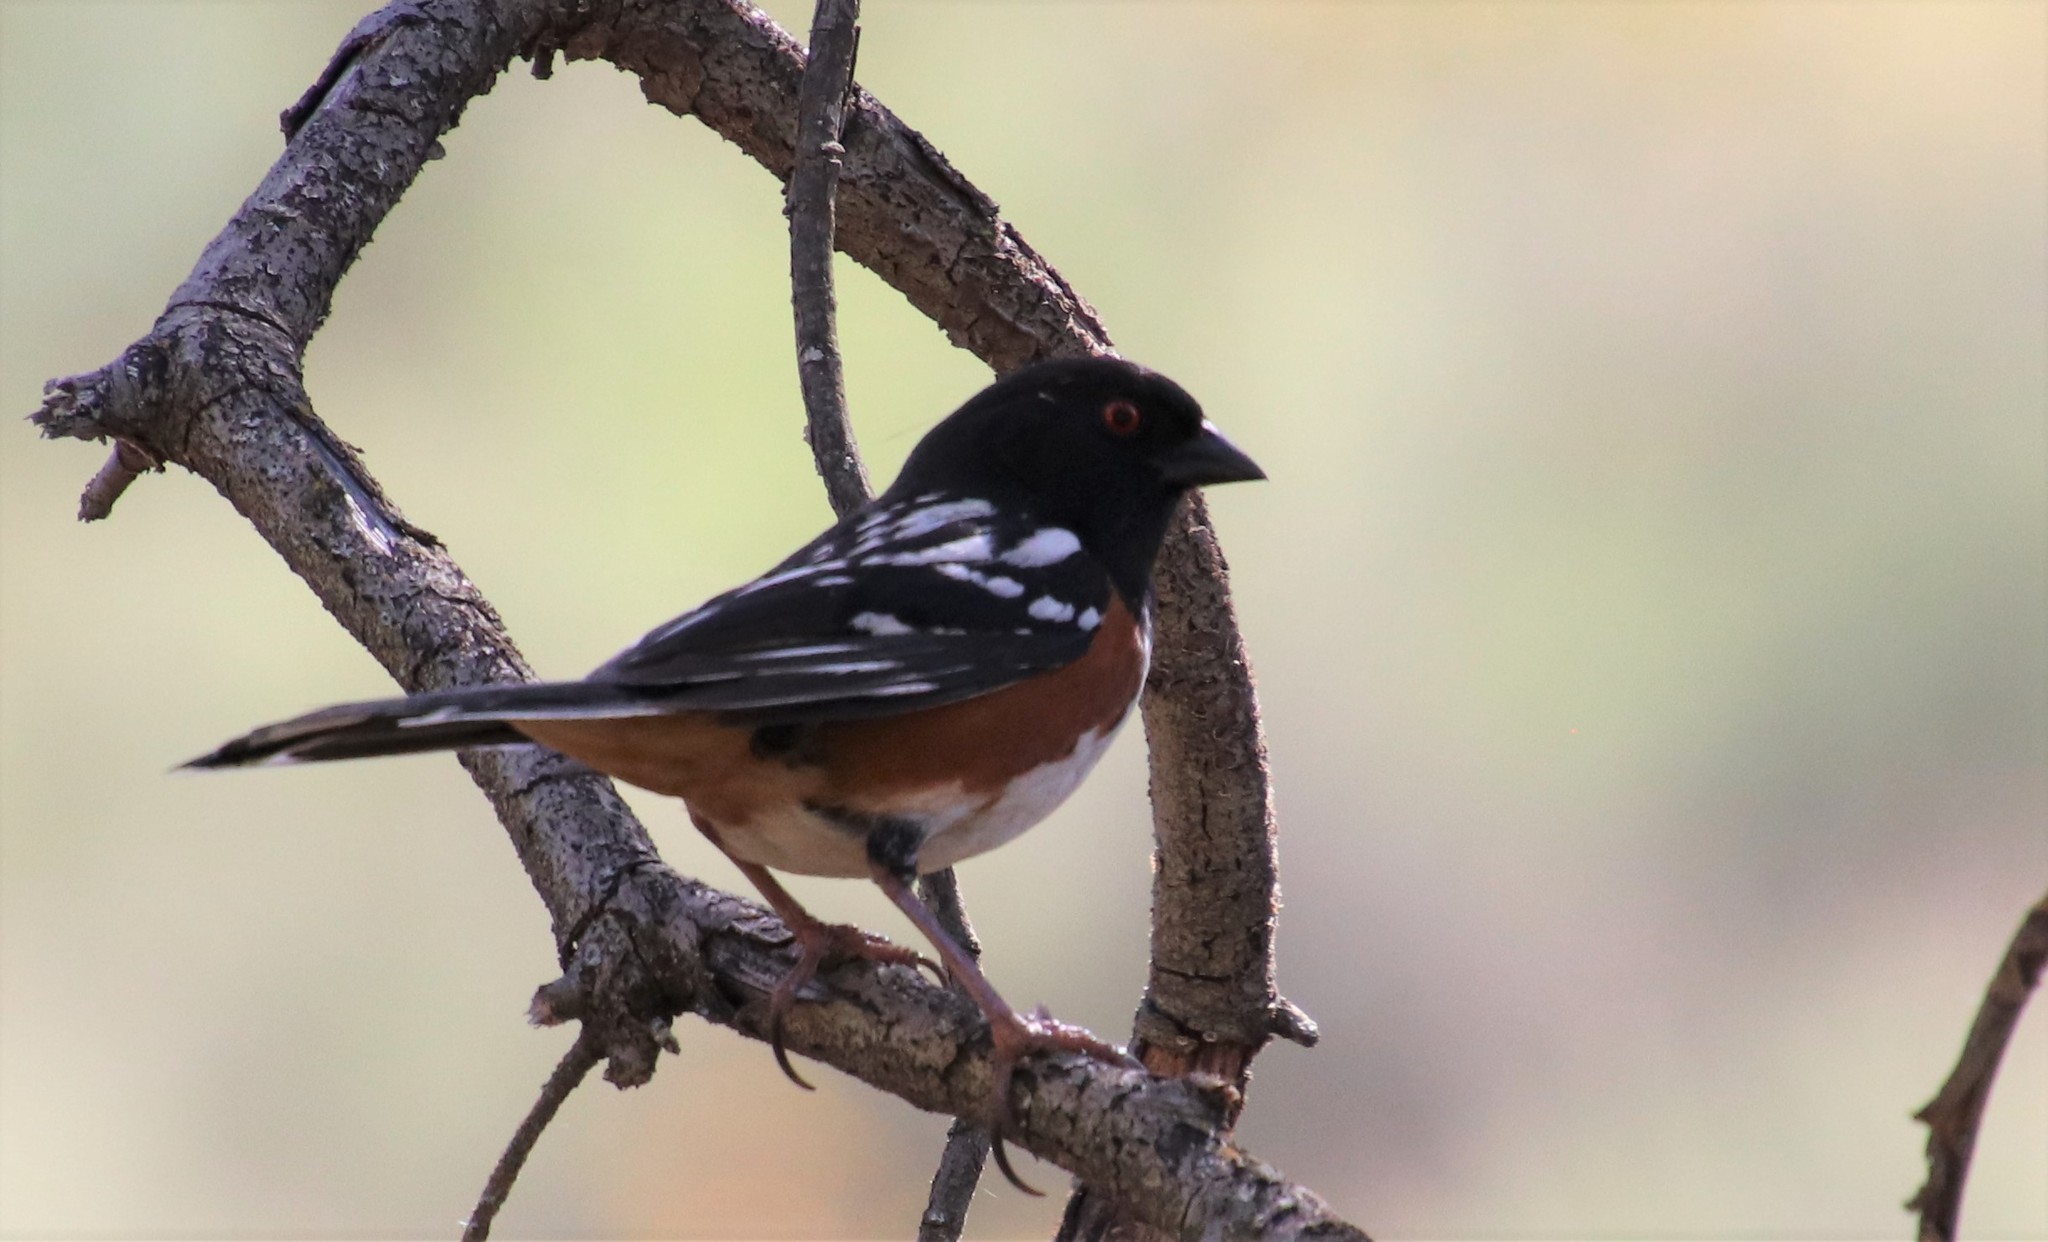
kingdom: Animalia
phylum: Chordata
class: Aves
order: Passeriformes
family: Passerellidae
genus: Pipilo
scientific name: Pipilo maculatus
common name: Spotted towhee
